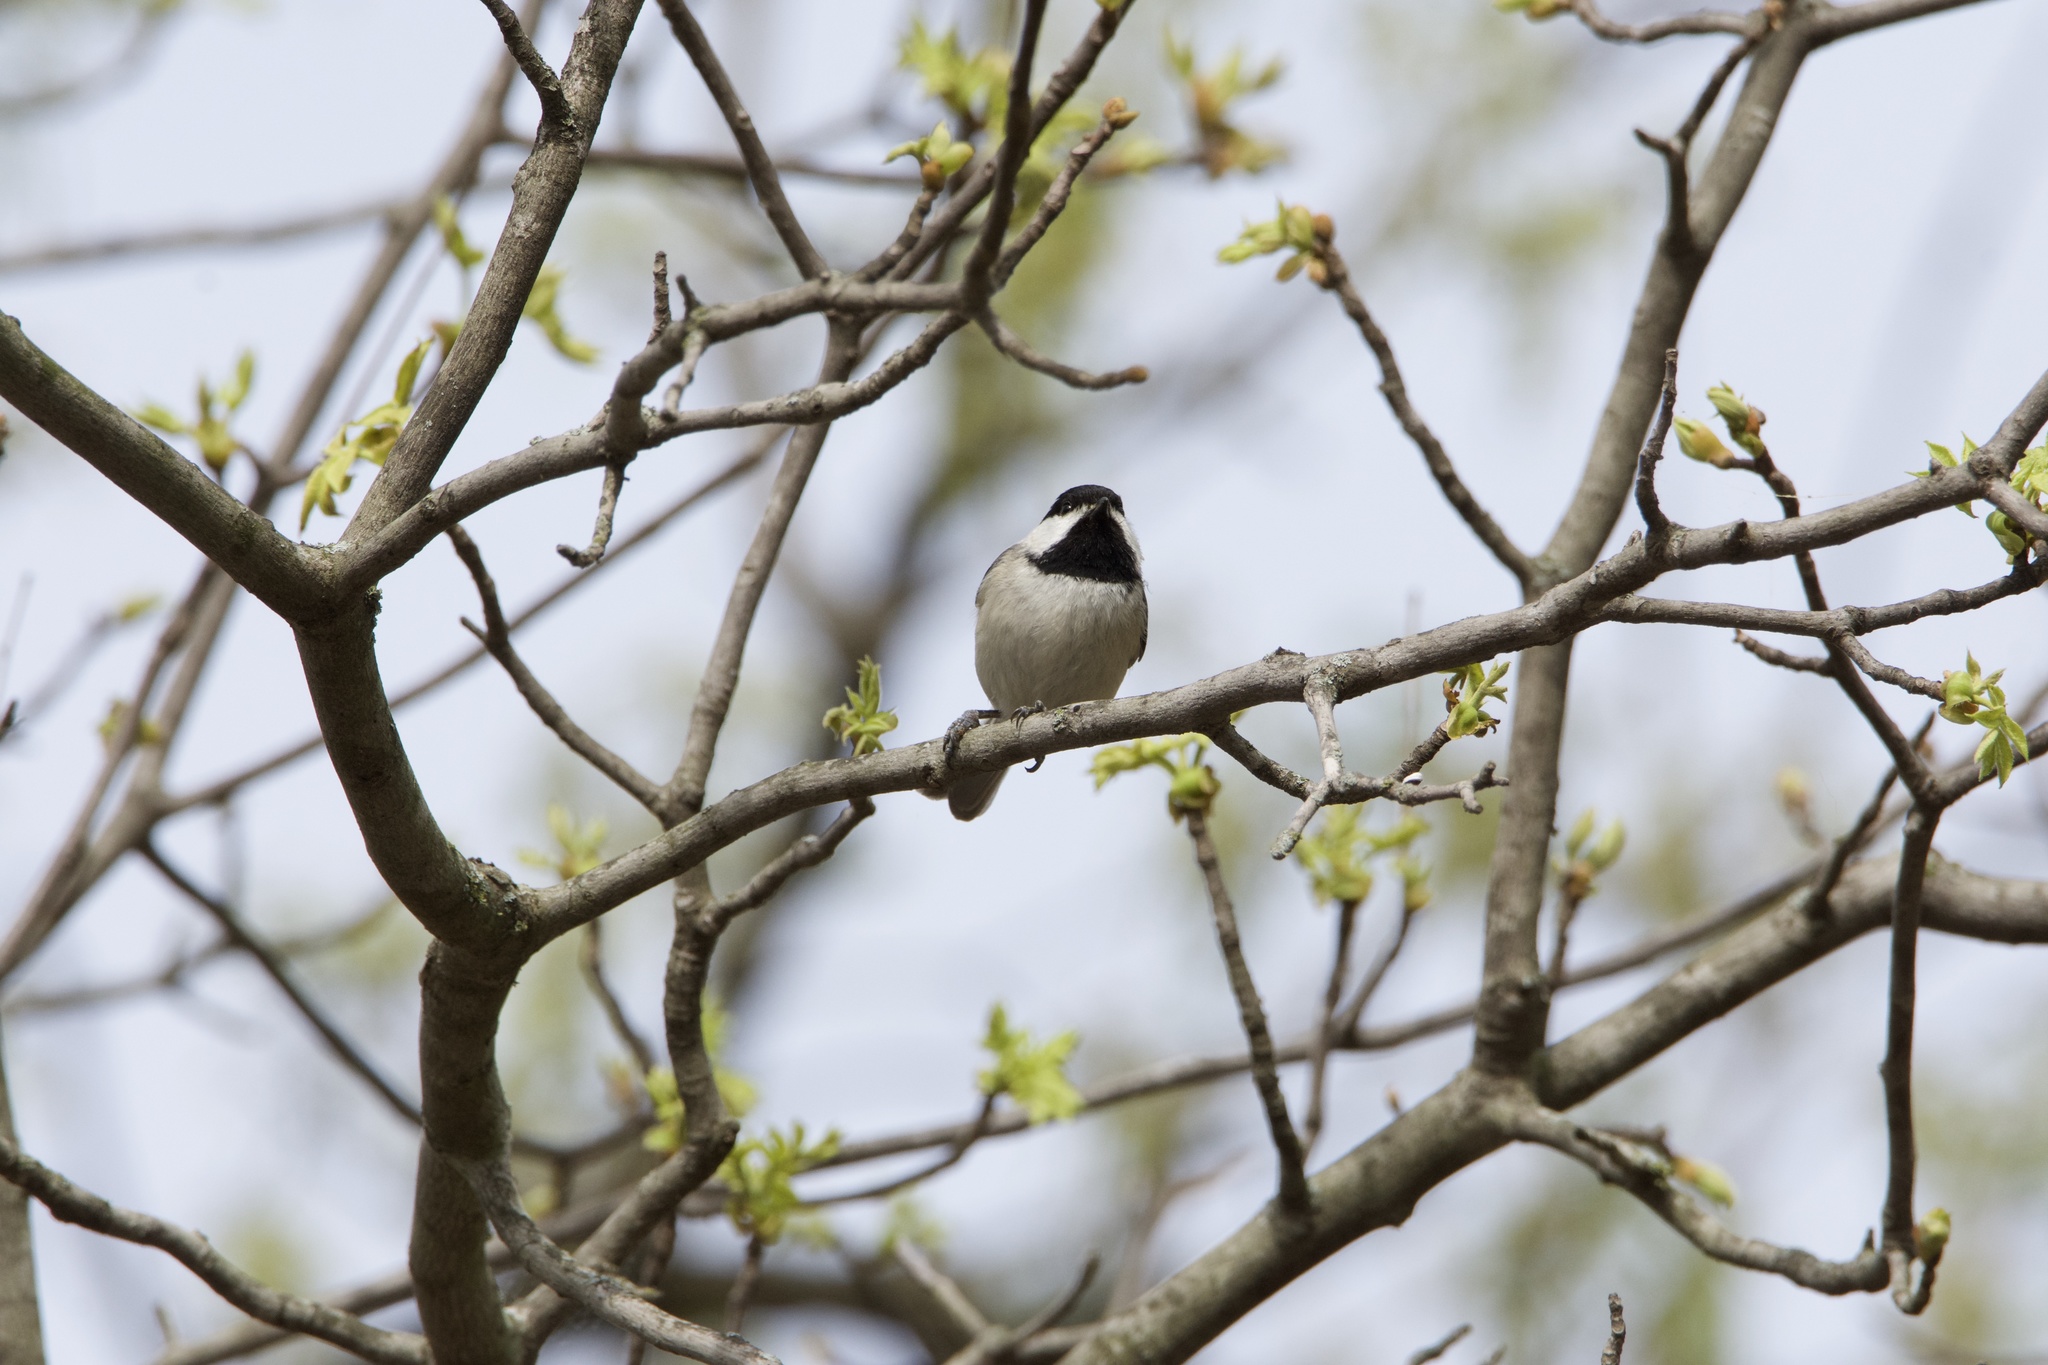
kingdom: Animalia
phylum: Chordata
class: Aves
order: Passeriformes
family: Paridae
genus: Poecile
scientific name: Poecile carolinensis
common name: Carolina chickadee
